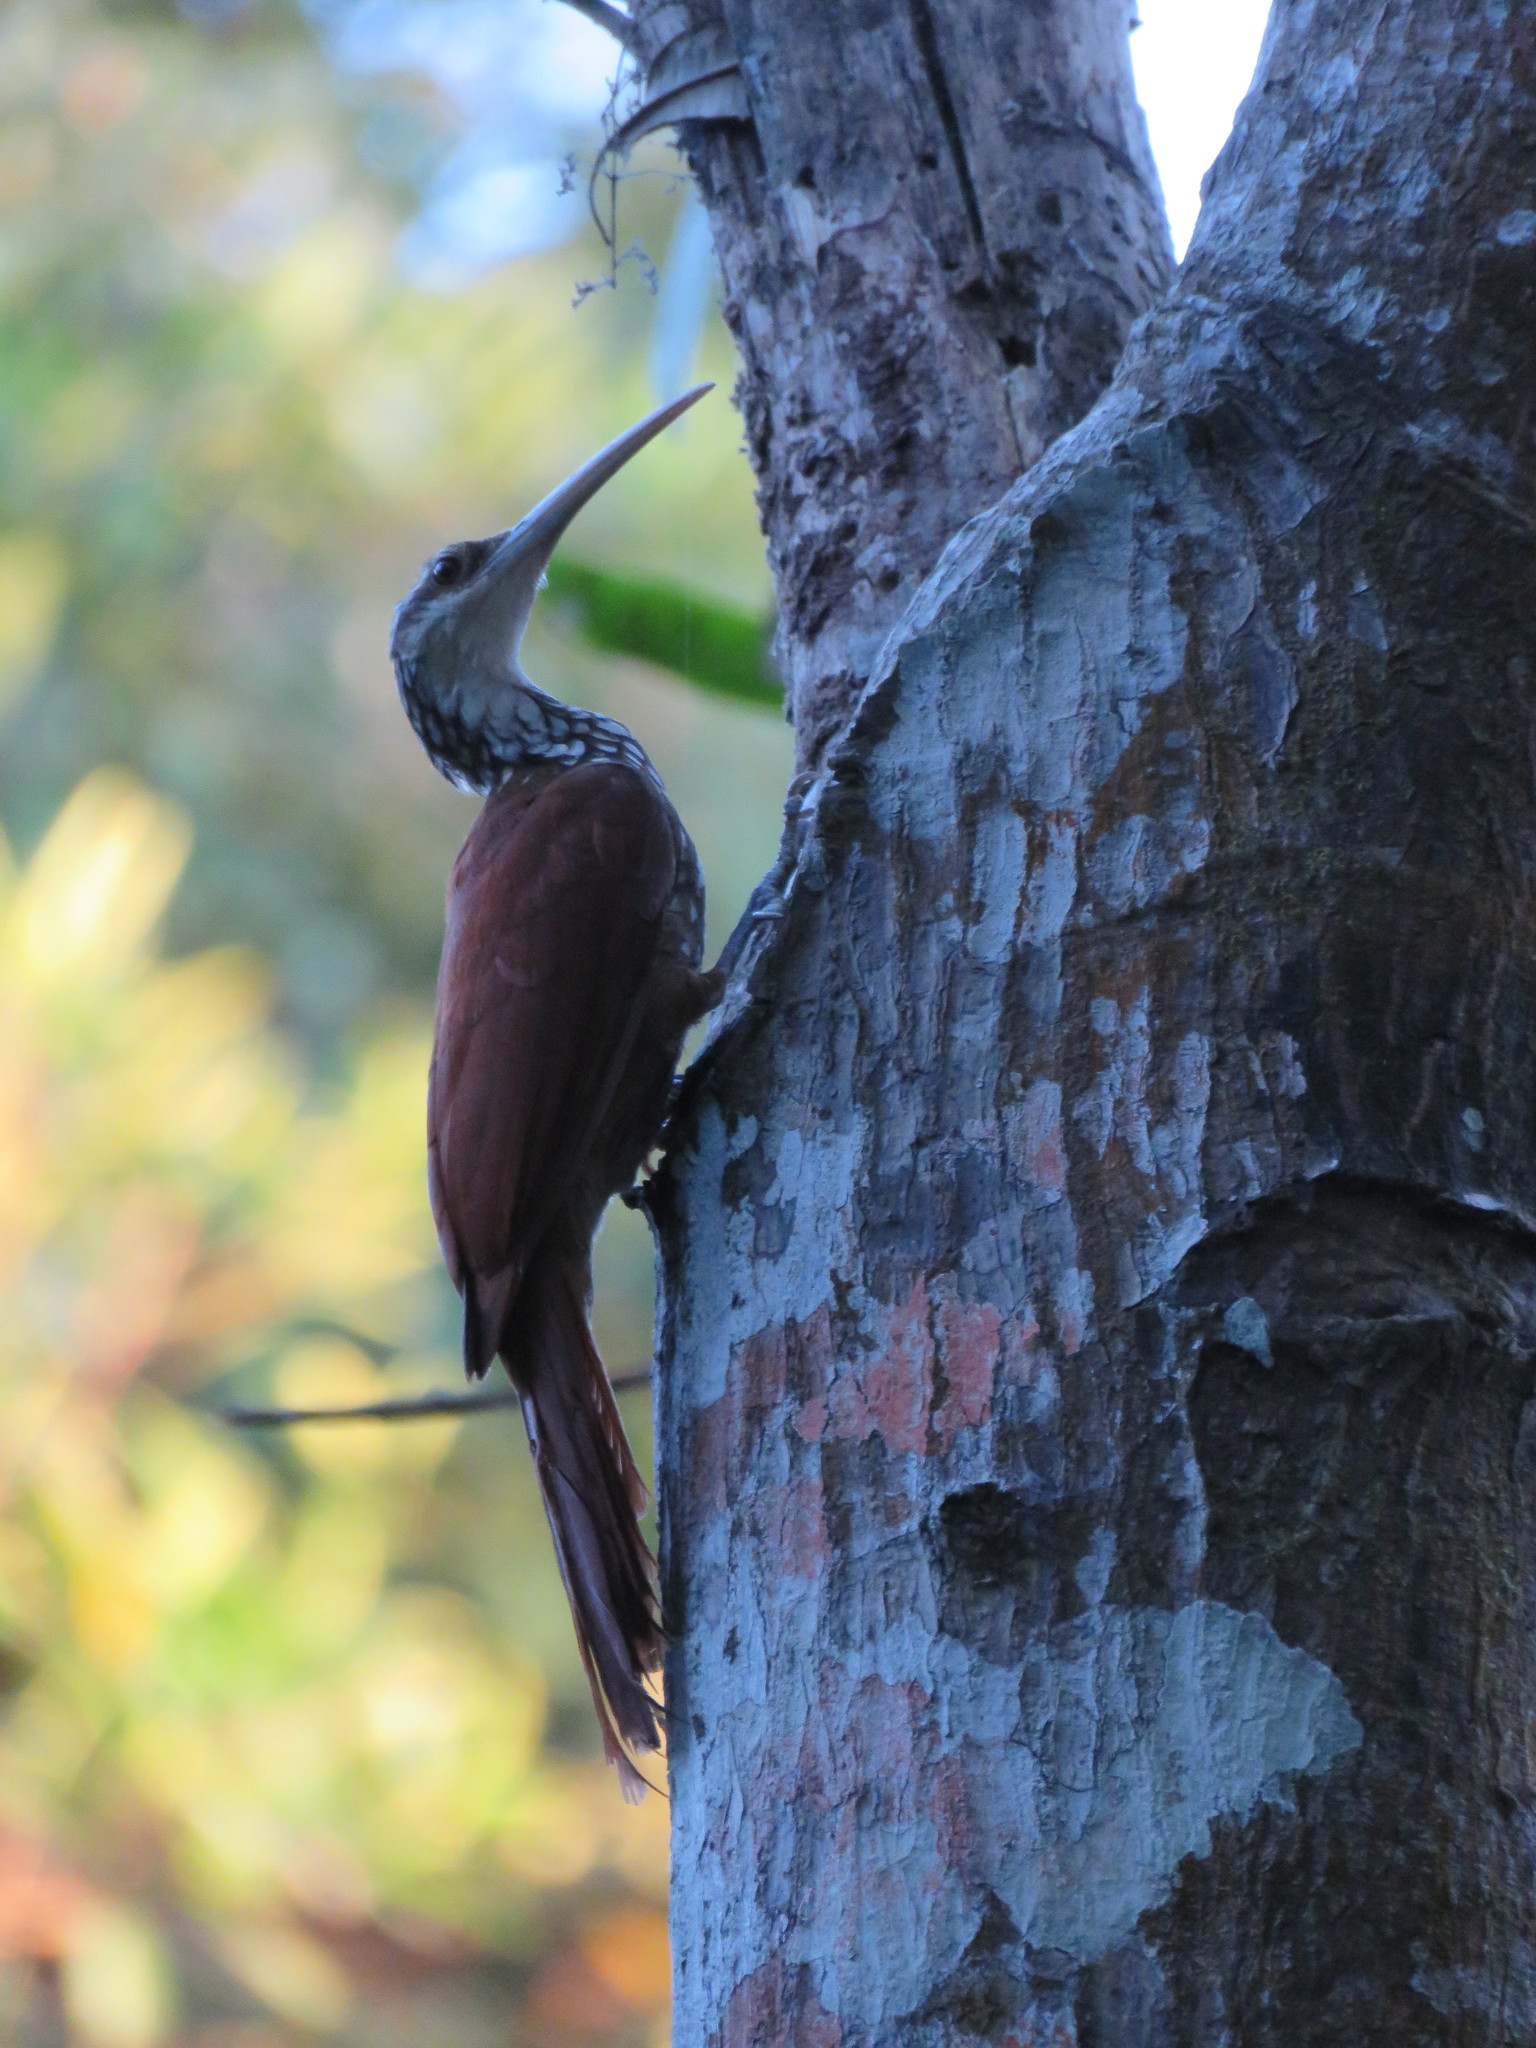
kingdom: Animalia
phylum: Chordata
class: Aves
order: Passeriformes
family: Furnariidae
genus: Nasica
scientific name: Nasica longirostris
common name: Long-billed woodcreeper
